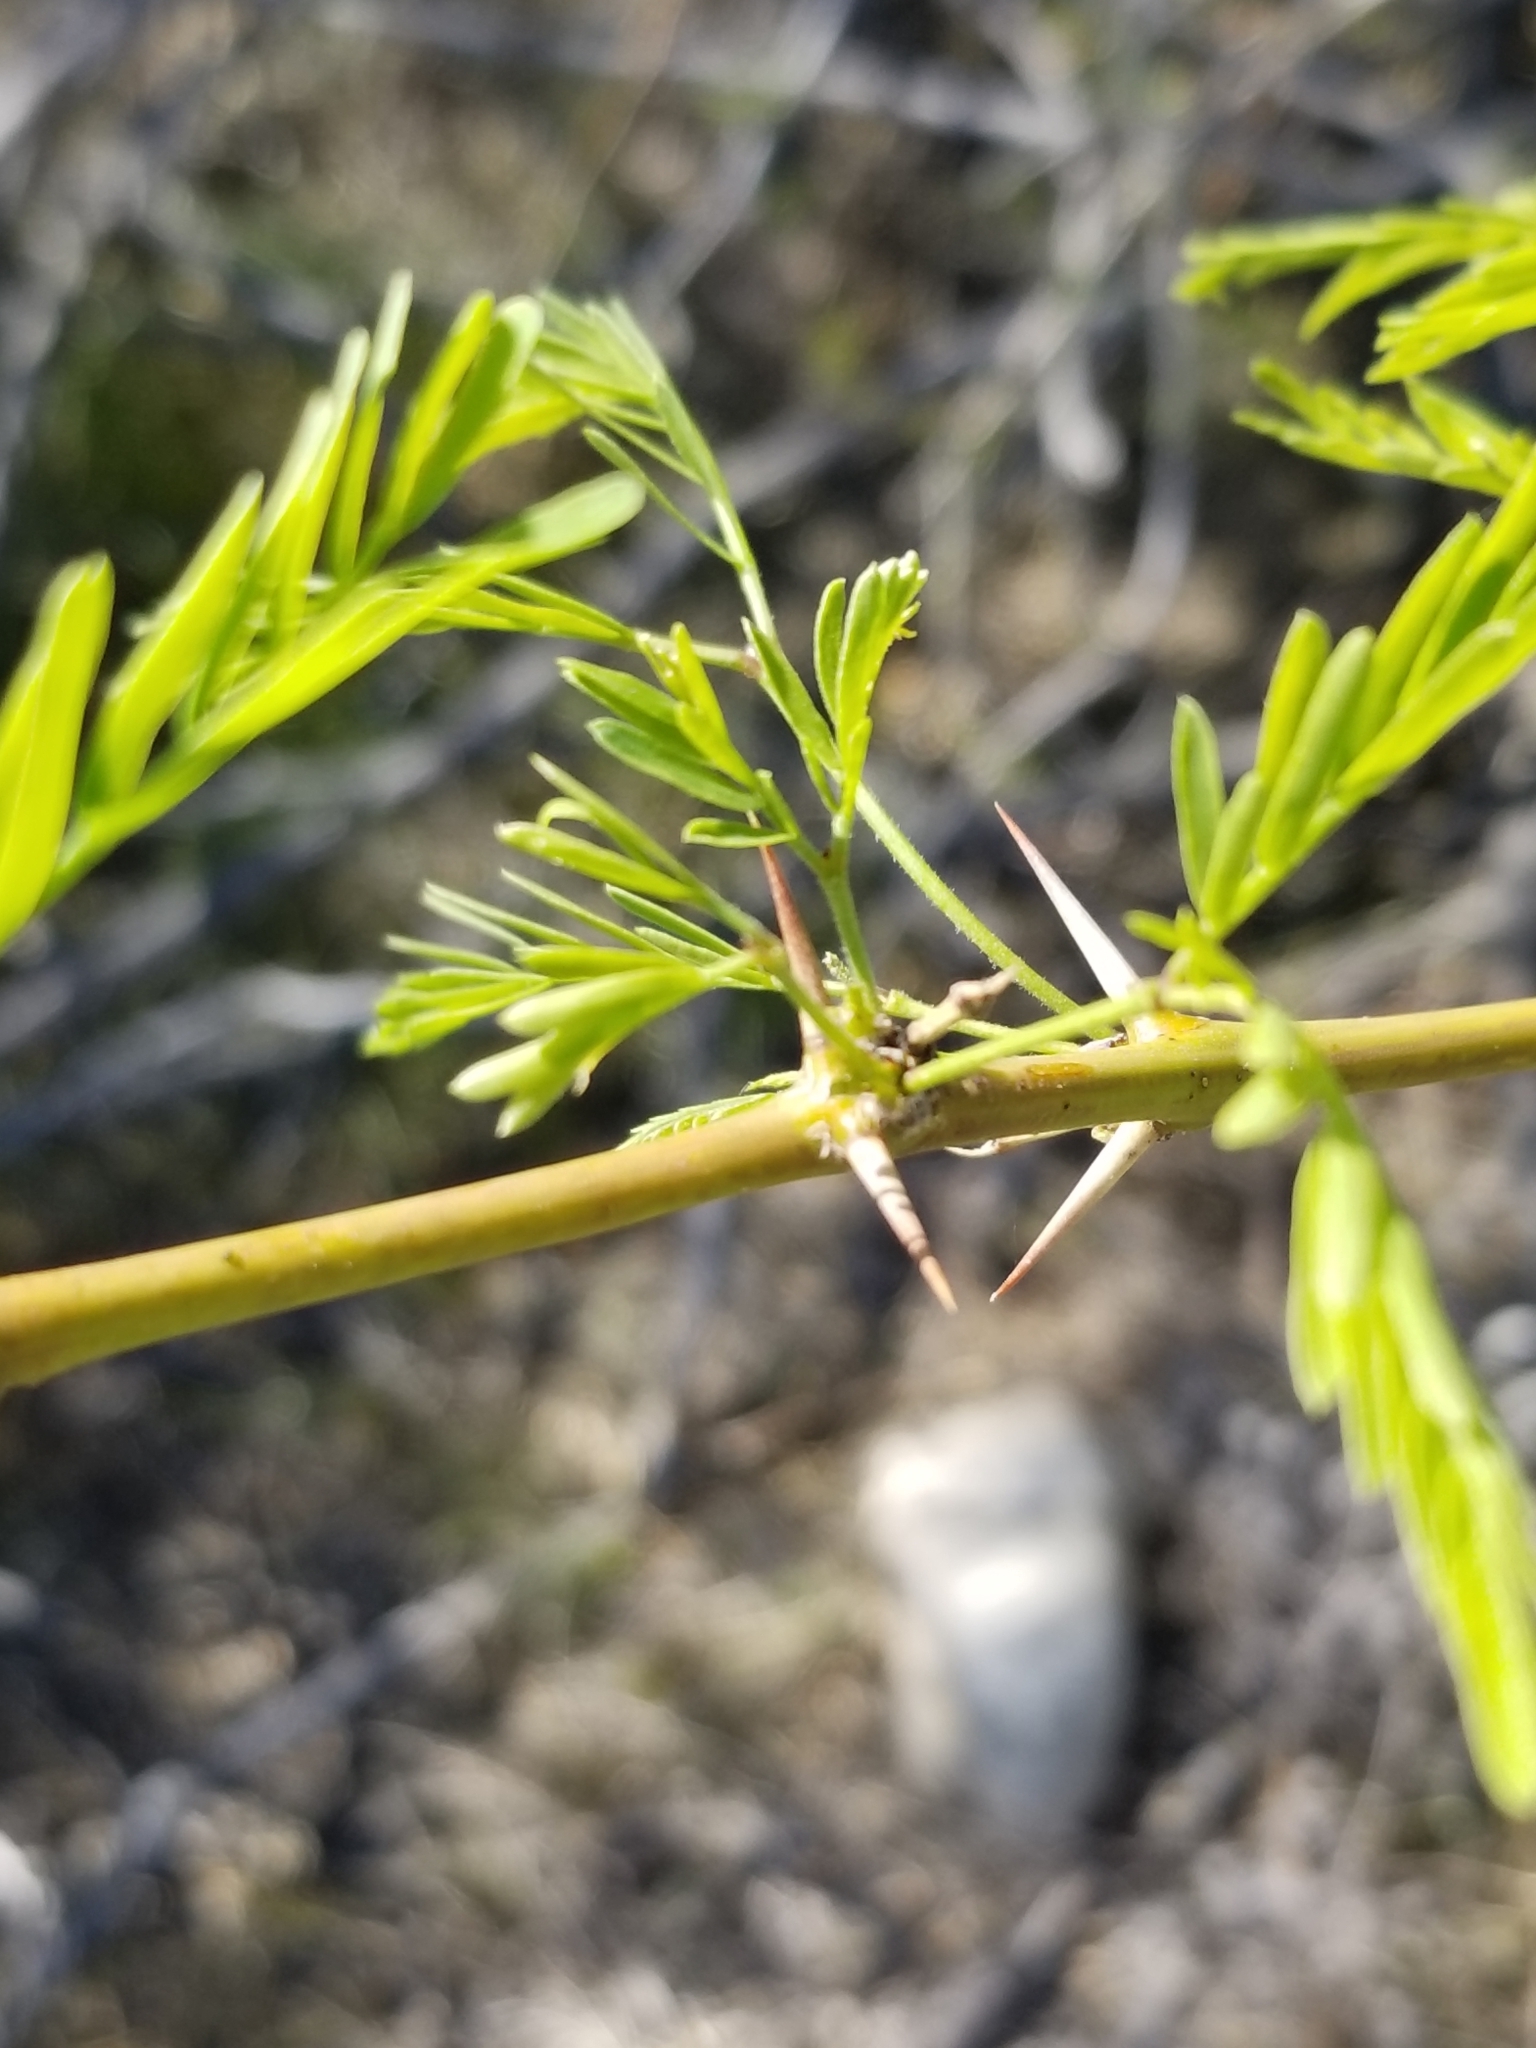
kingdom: Plantae
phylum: Tracheophyta
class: Magnoliopsida
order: Fabales
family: Fabaceae
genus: Prosopis
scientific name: Prosopis pubescens
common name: Screw-bean
